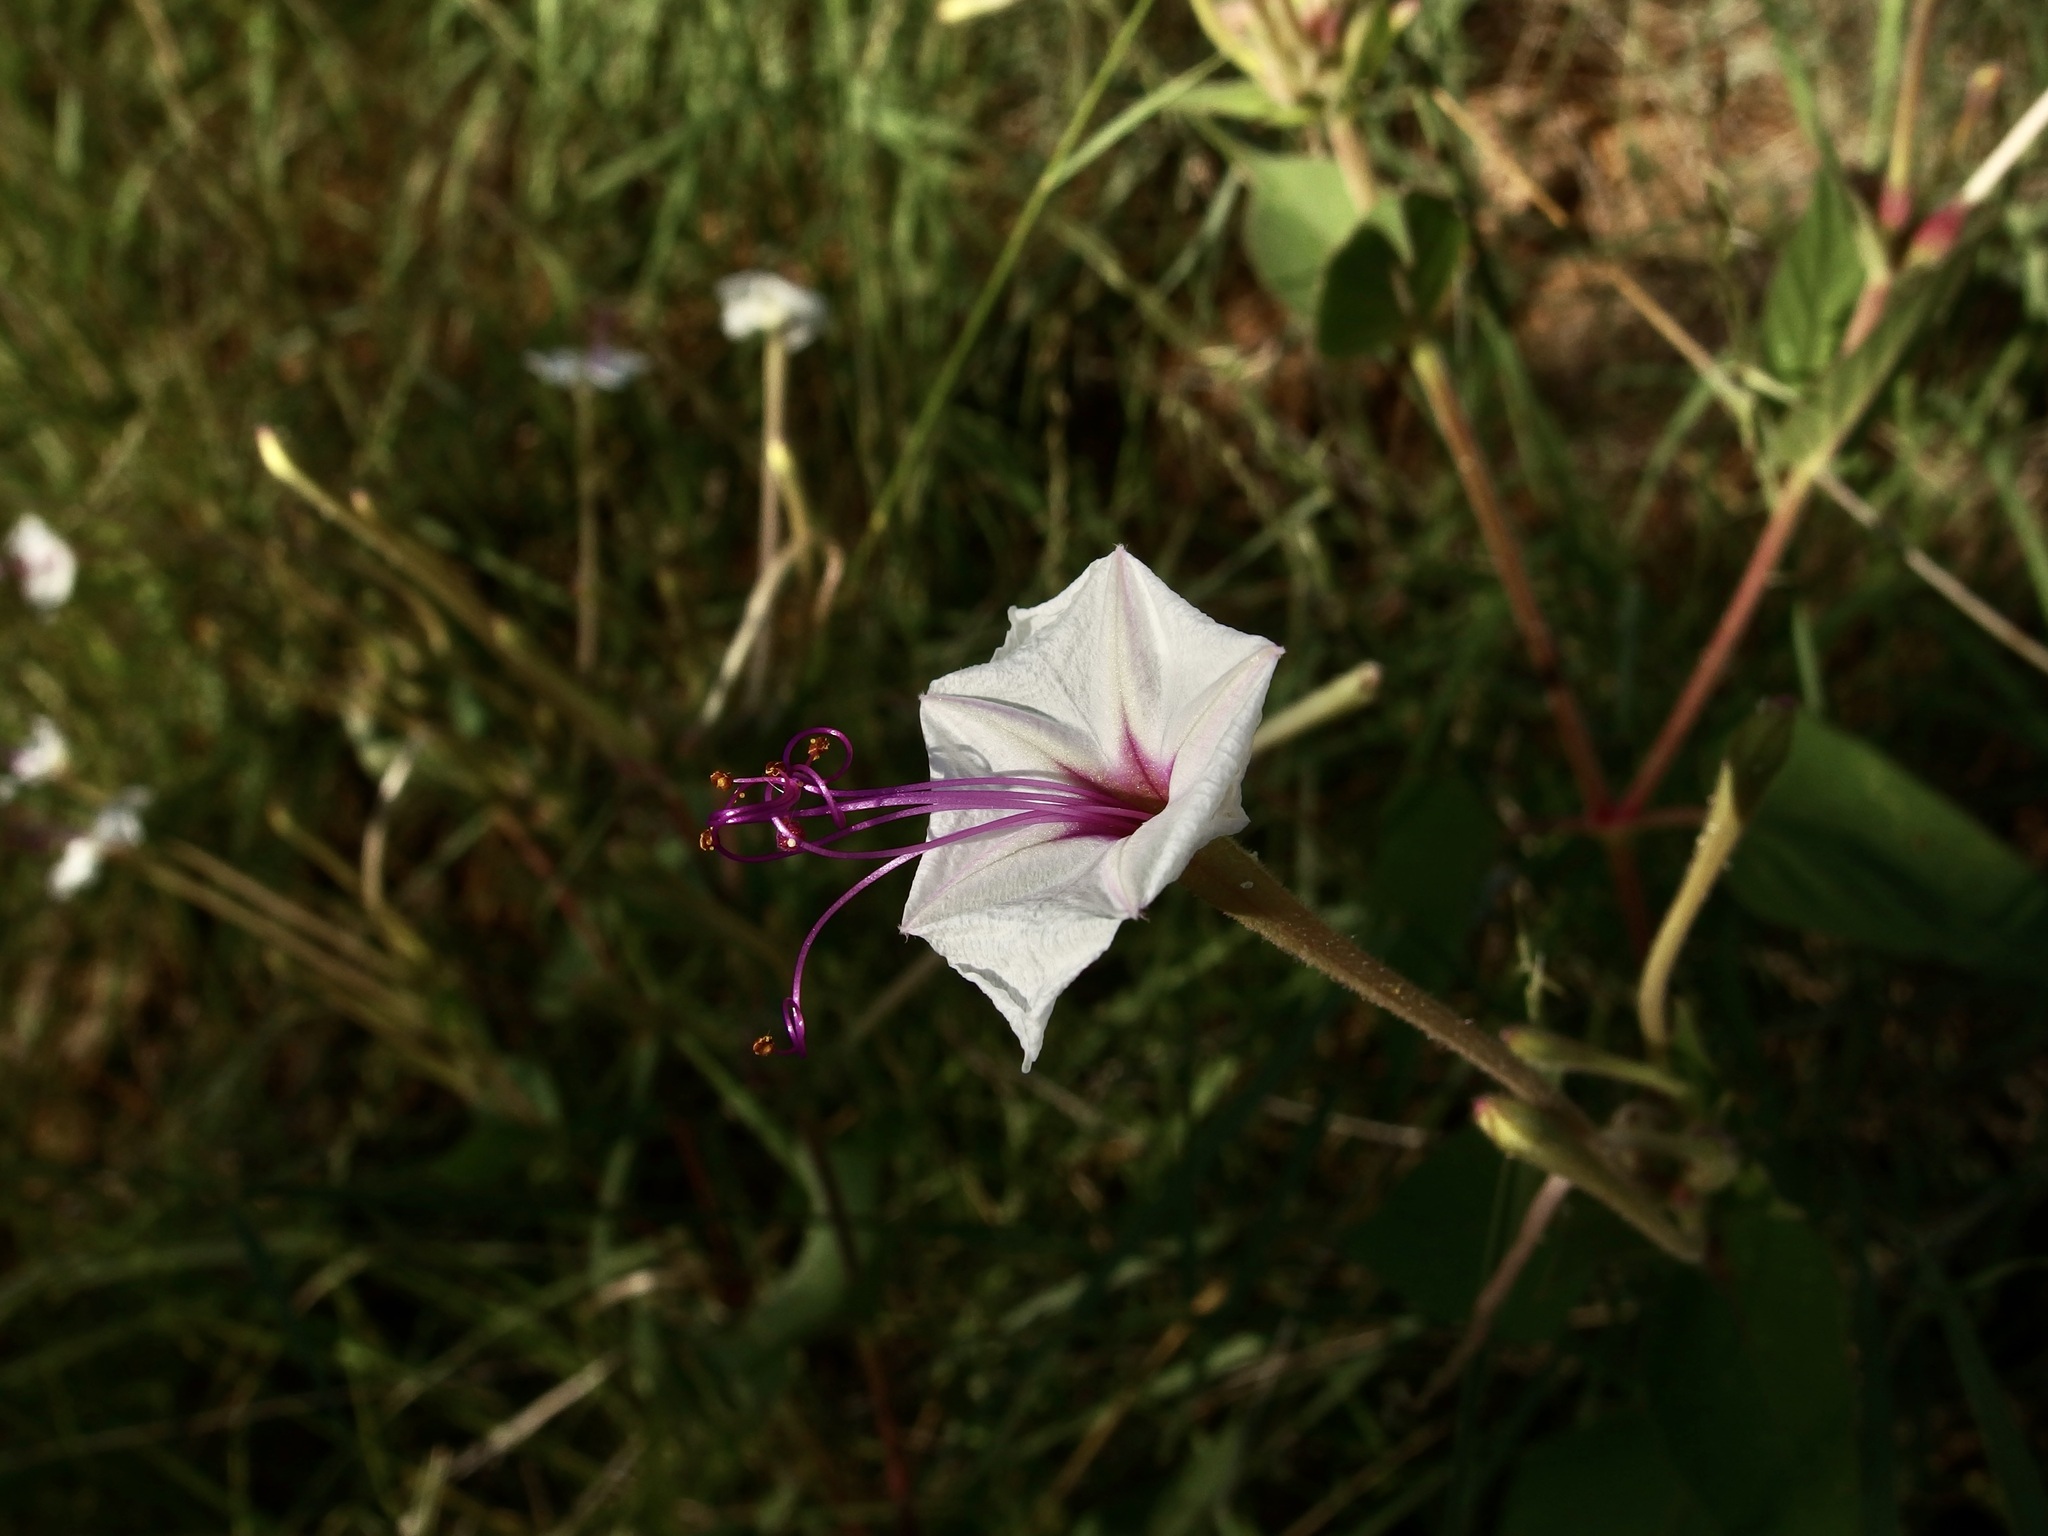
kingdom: Plantae
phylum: Tracheophyta
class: Magnoliopsida
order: Caryophyllales
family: Nyctaginaceae
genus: Mirabilis
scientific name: Mirabilis longiflora
